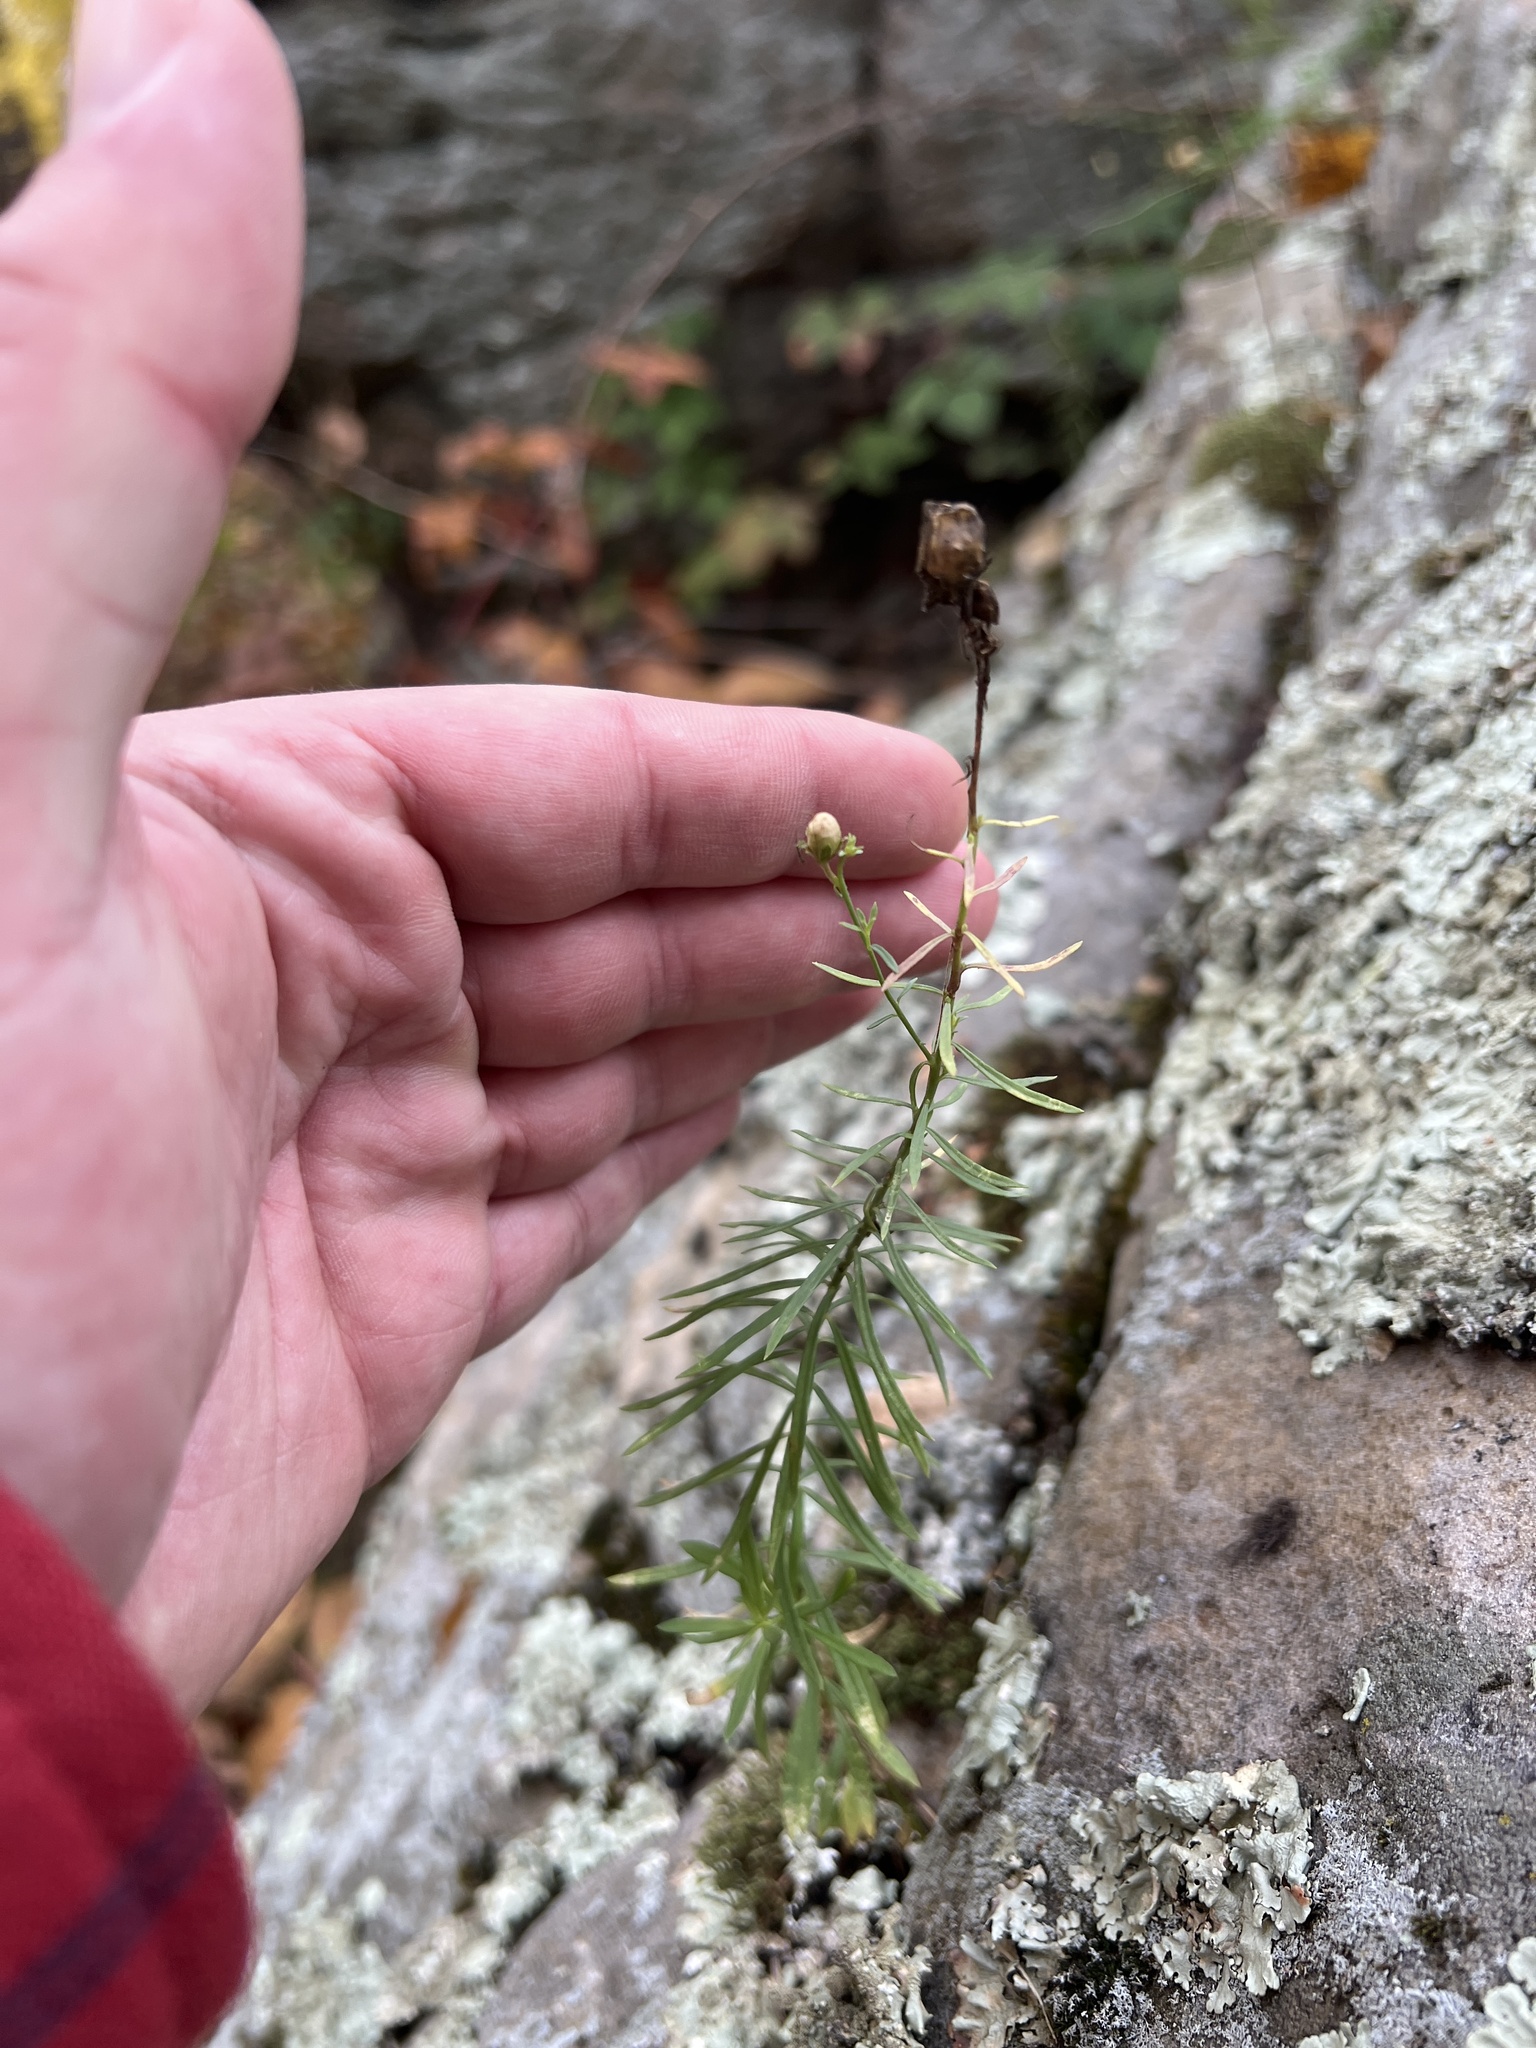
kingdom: Plantae
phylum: Tracheophyta
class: Magnoliopsida
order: Asterales
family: Asteraceae
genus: Ionactis
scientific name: Ionactis linariifolia
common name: Flax-leaf aster
